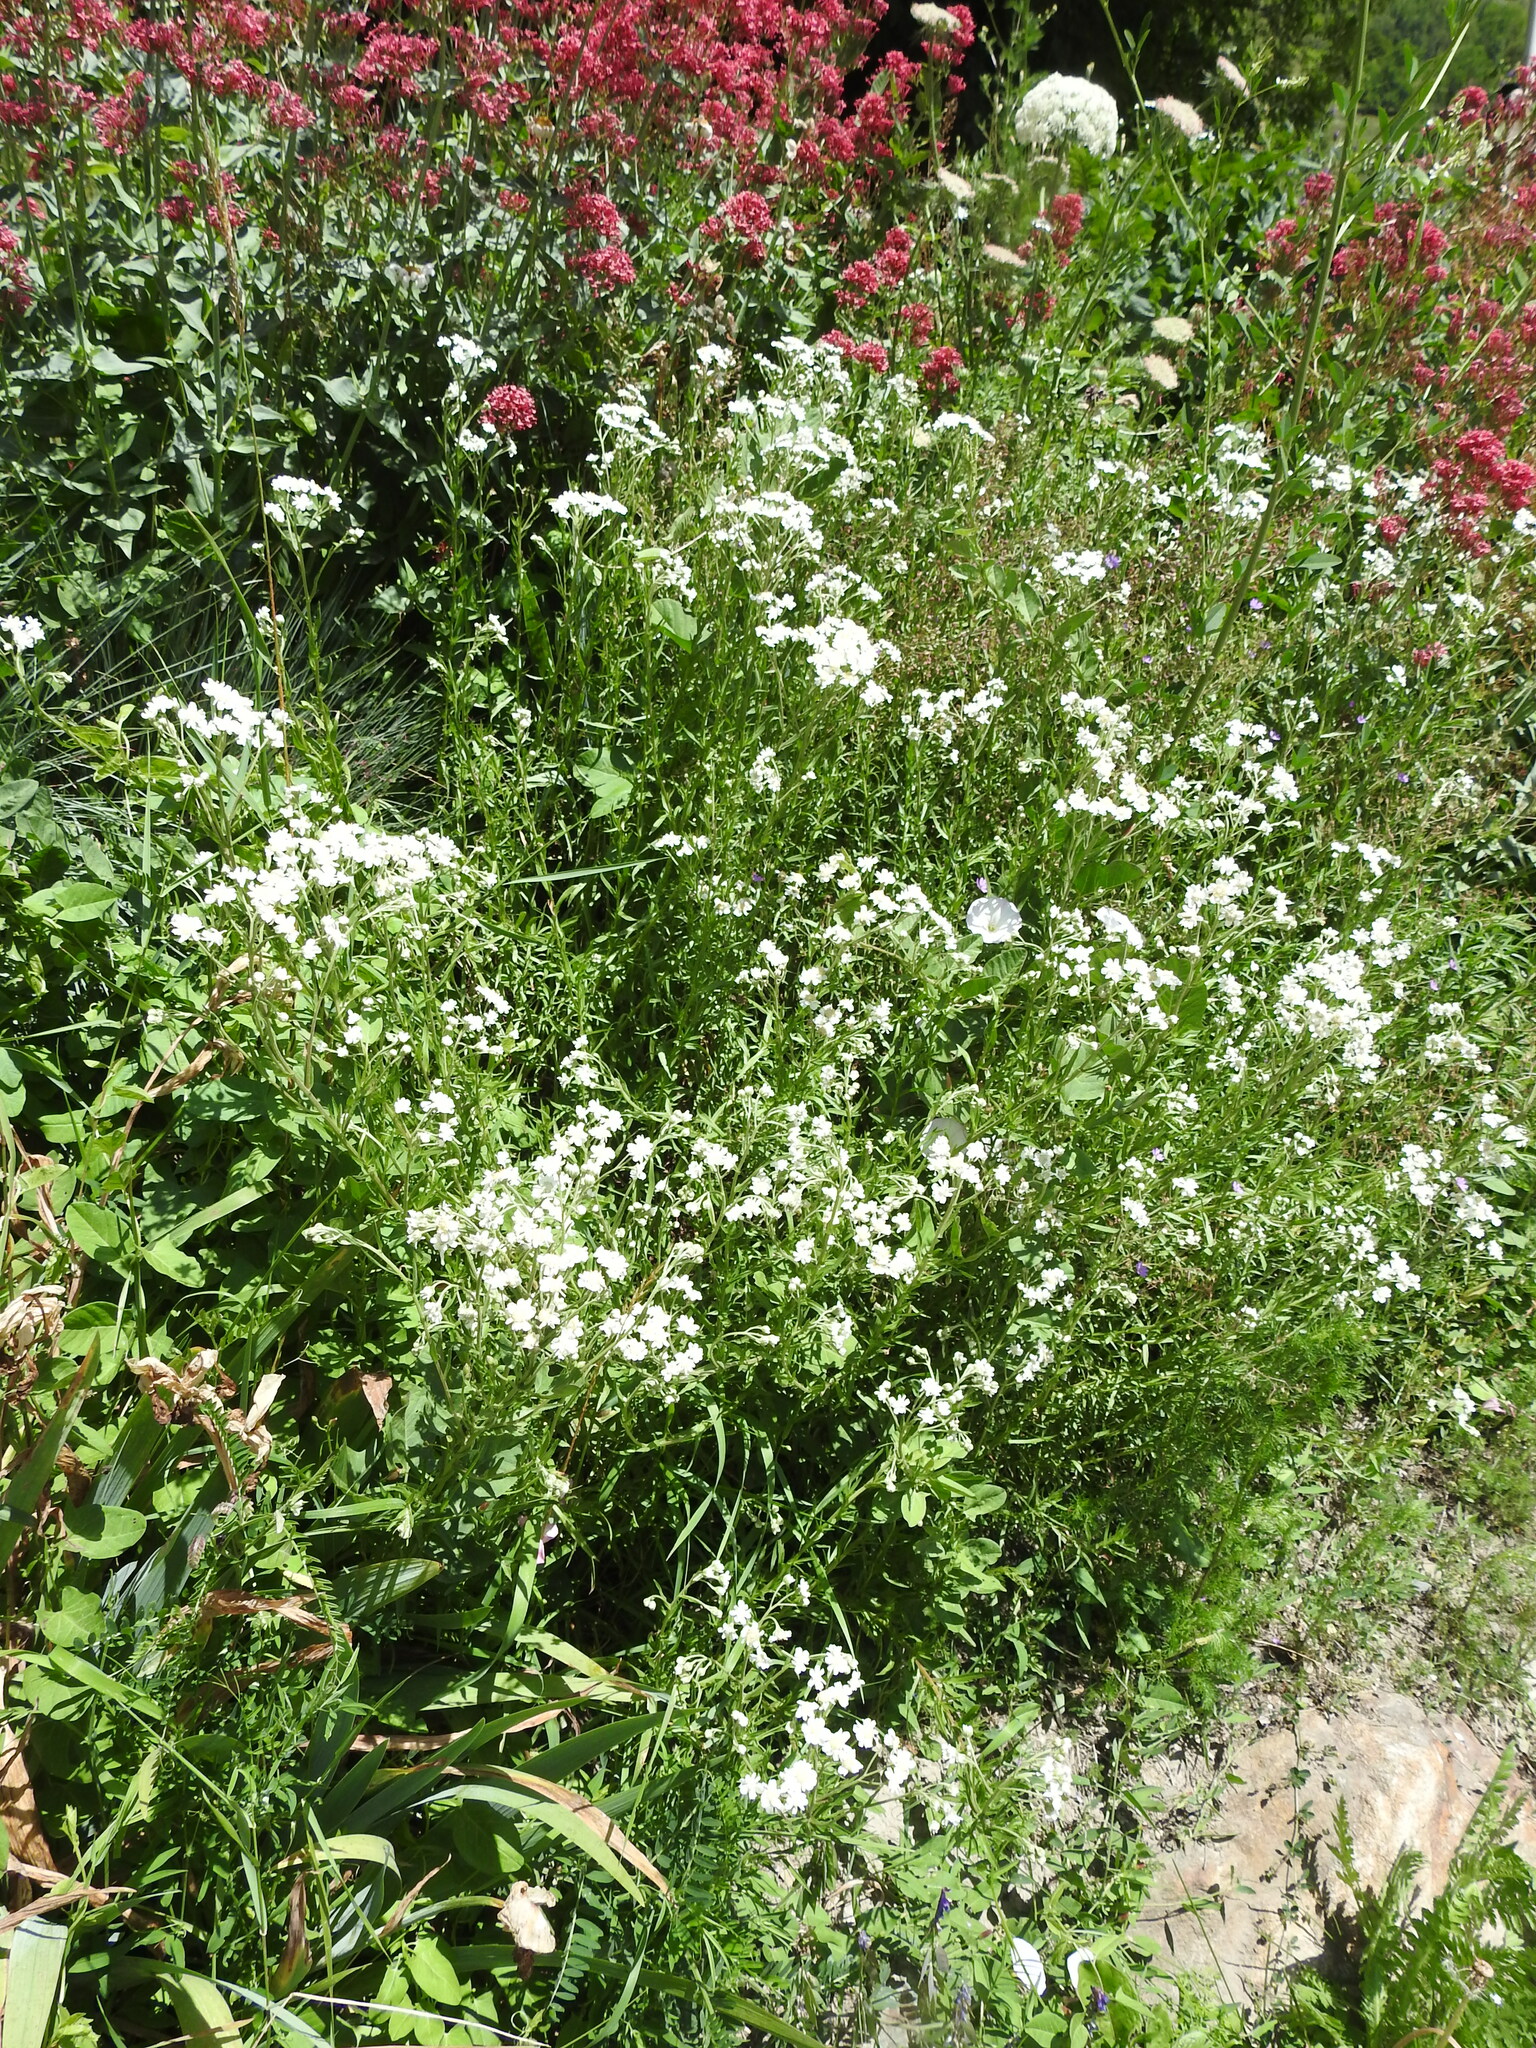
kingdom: Plantae
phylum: Tracheophyta
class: Magnoliopsida
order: Asterales
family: Asteraceae
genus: Achillea
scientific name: Achillea ptarmica
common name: Sneezeweed
